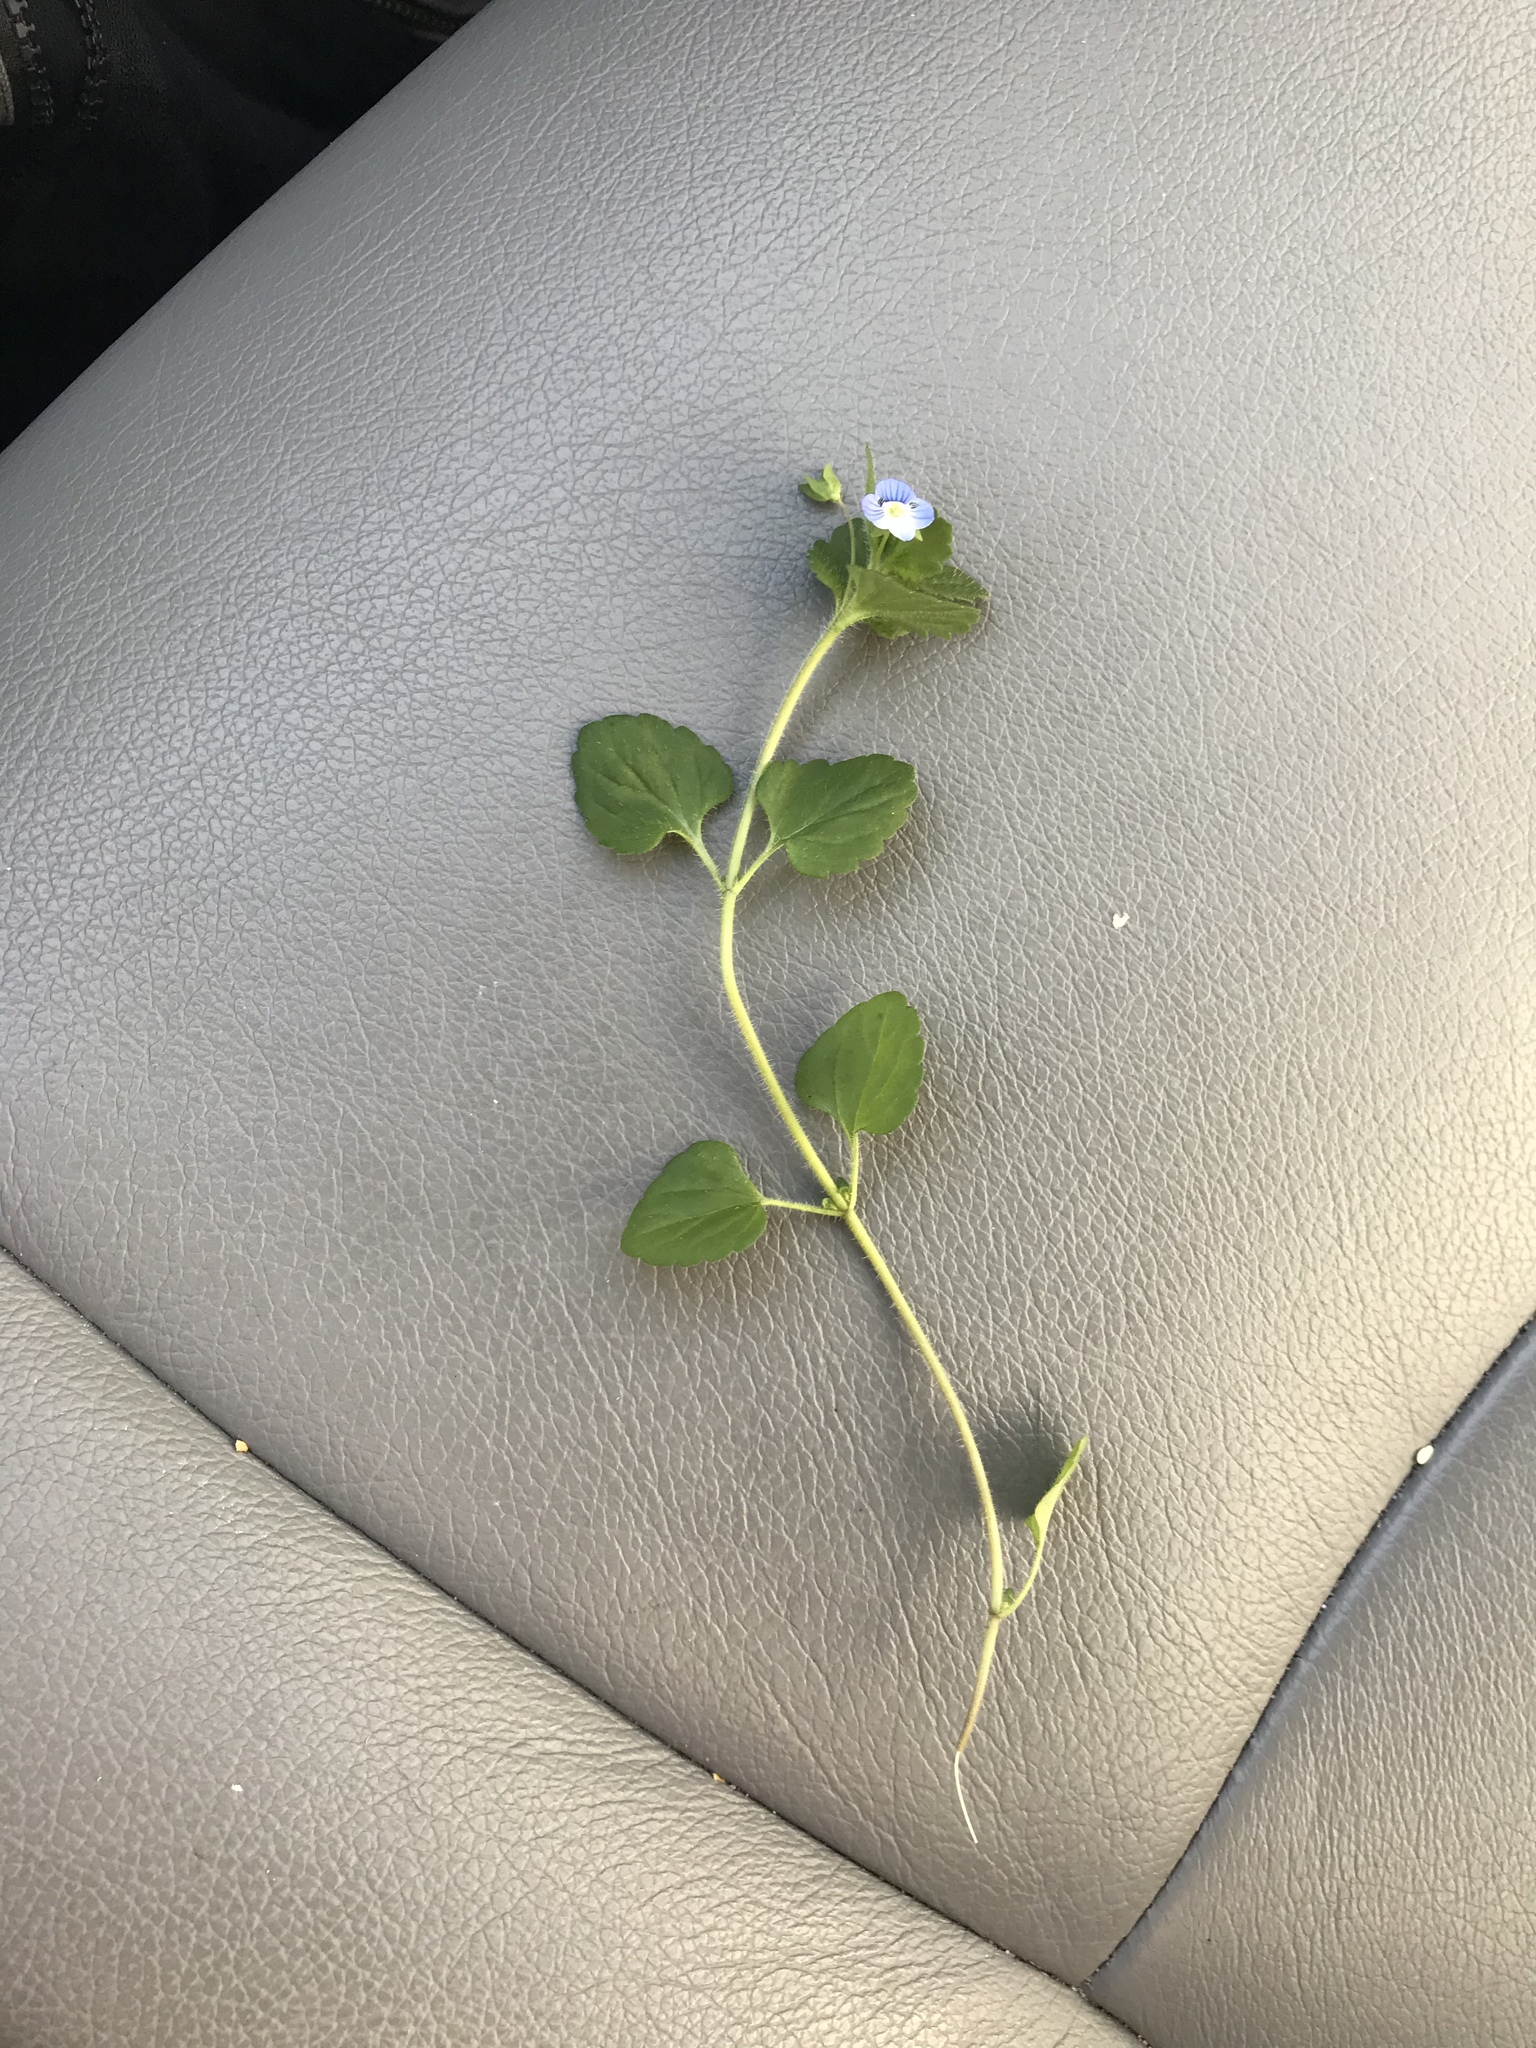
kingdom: Plantae
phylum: Tracheophyta
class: Magnoliopsida
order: Lamiales
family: Plantaginaceae
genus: Veronica
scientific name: Veronica persica
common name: Common field-speedwell
